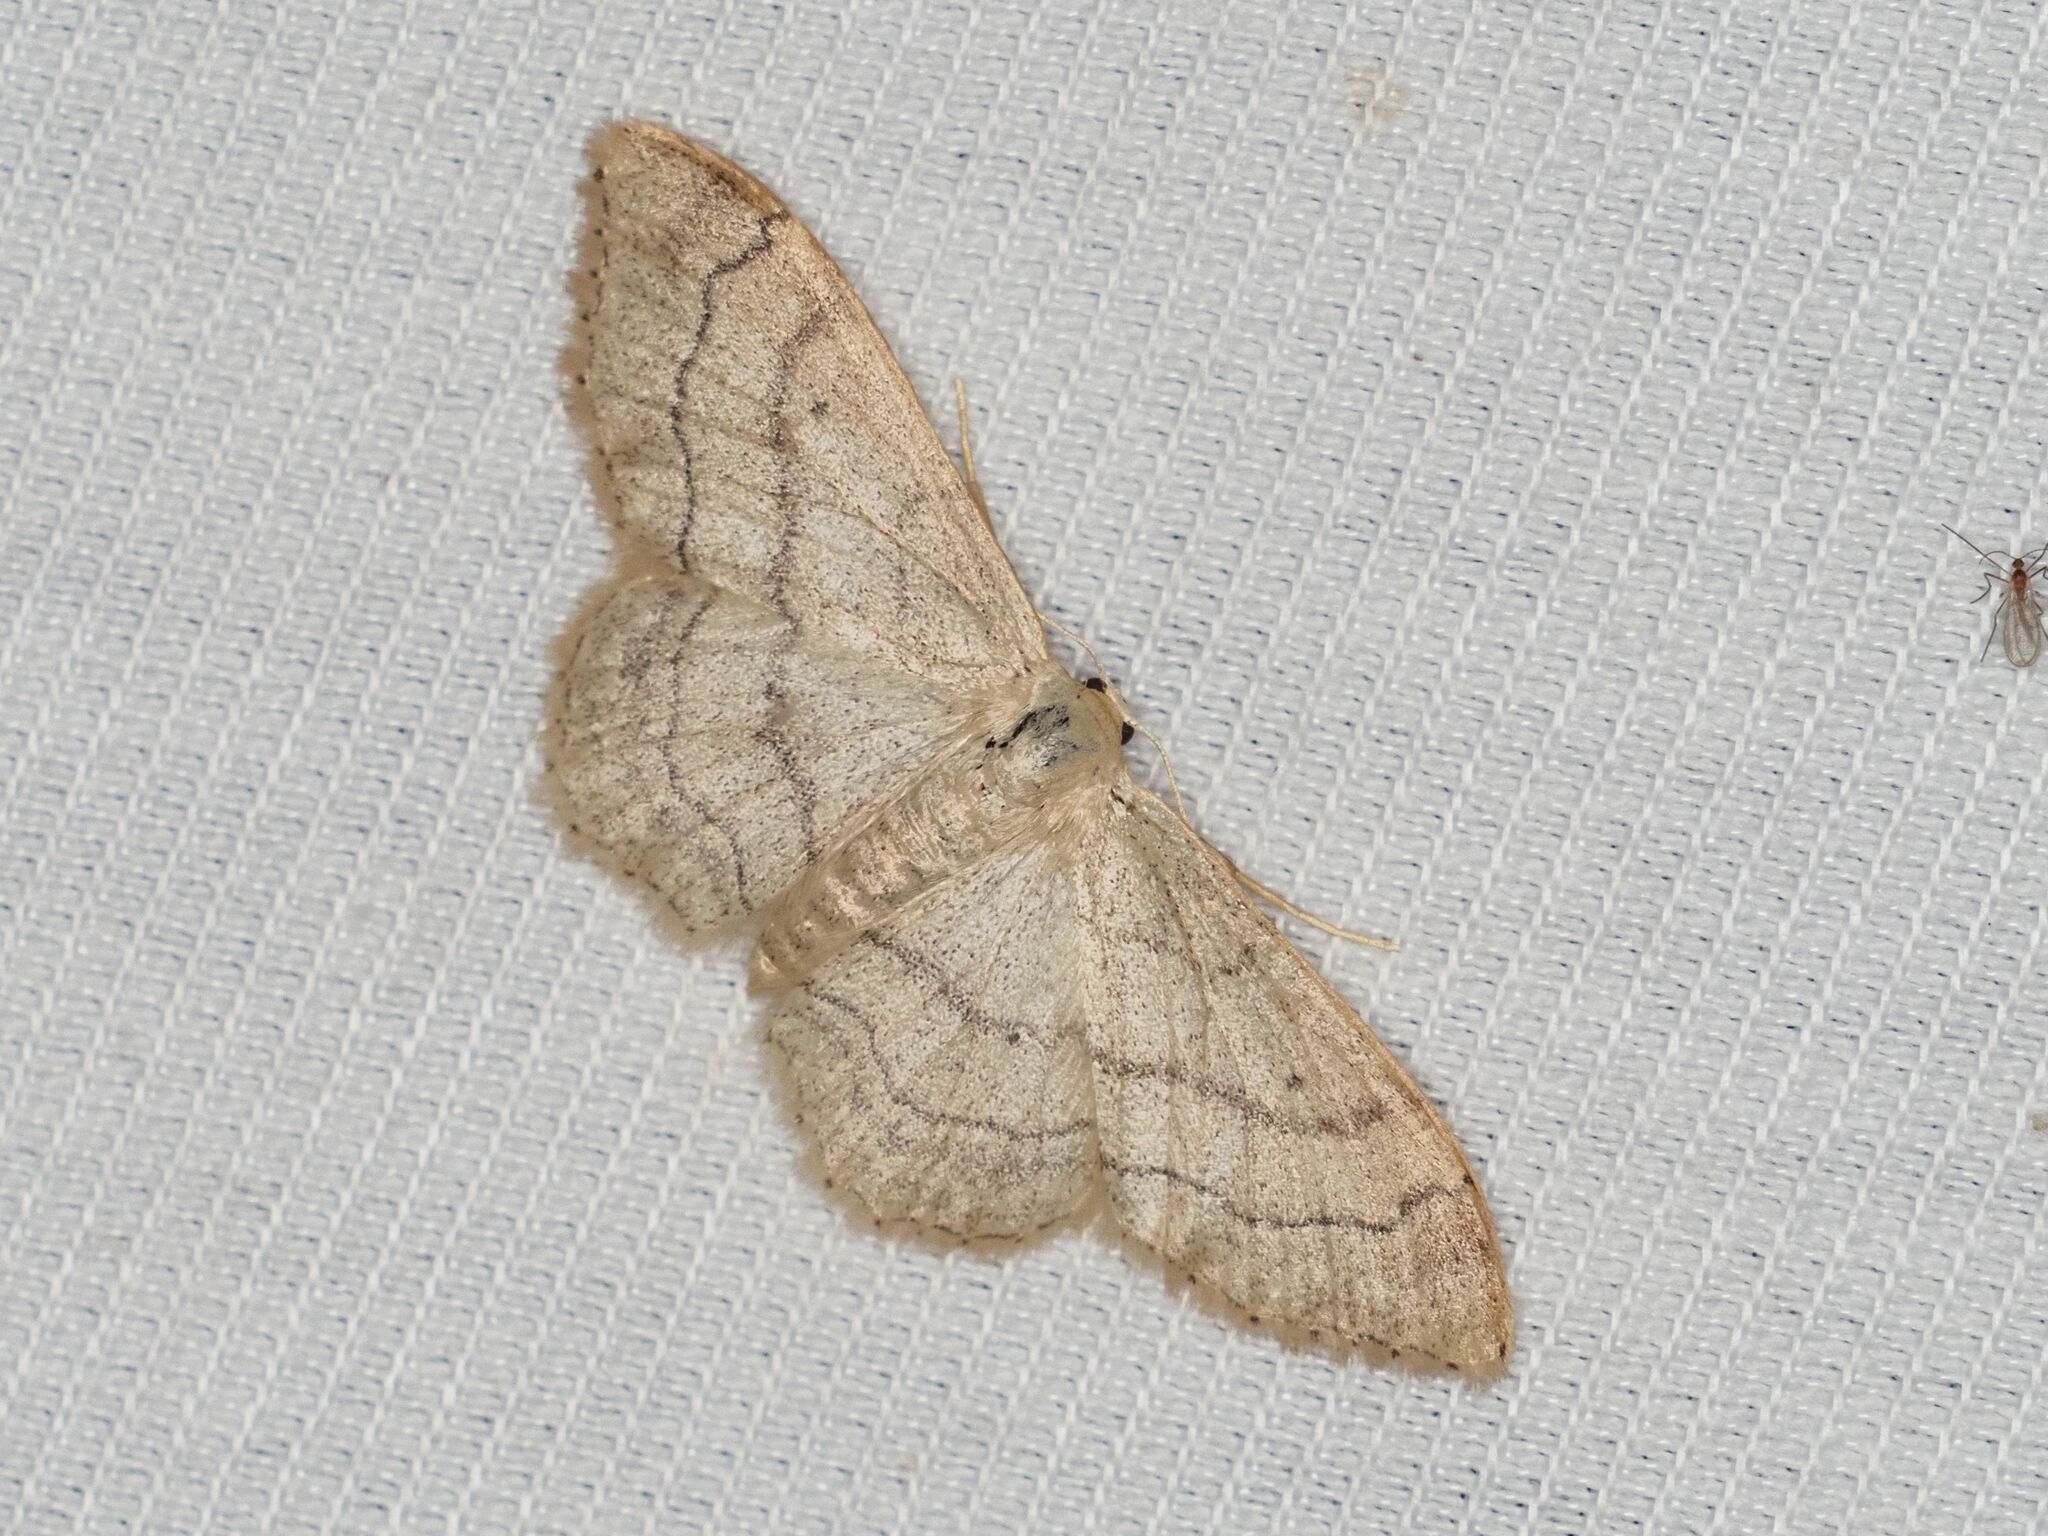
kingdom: Animalia
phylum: Arthropoda
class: Insecta
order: Lepidoptera
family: Geometridae
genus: Idaea
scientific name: Idaea aversata
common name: Riband wave
